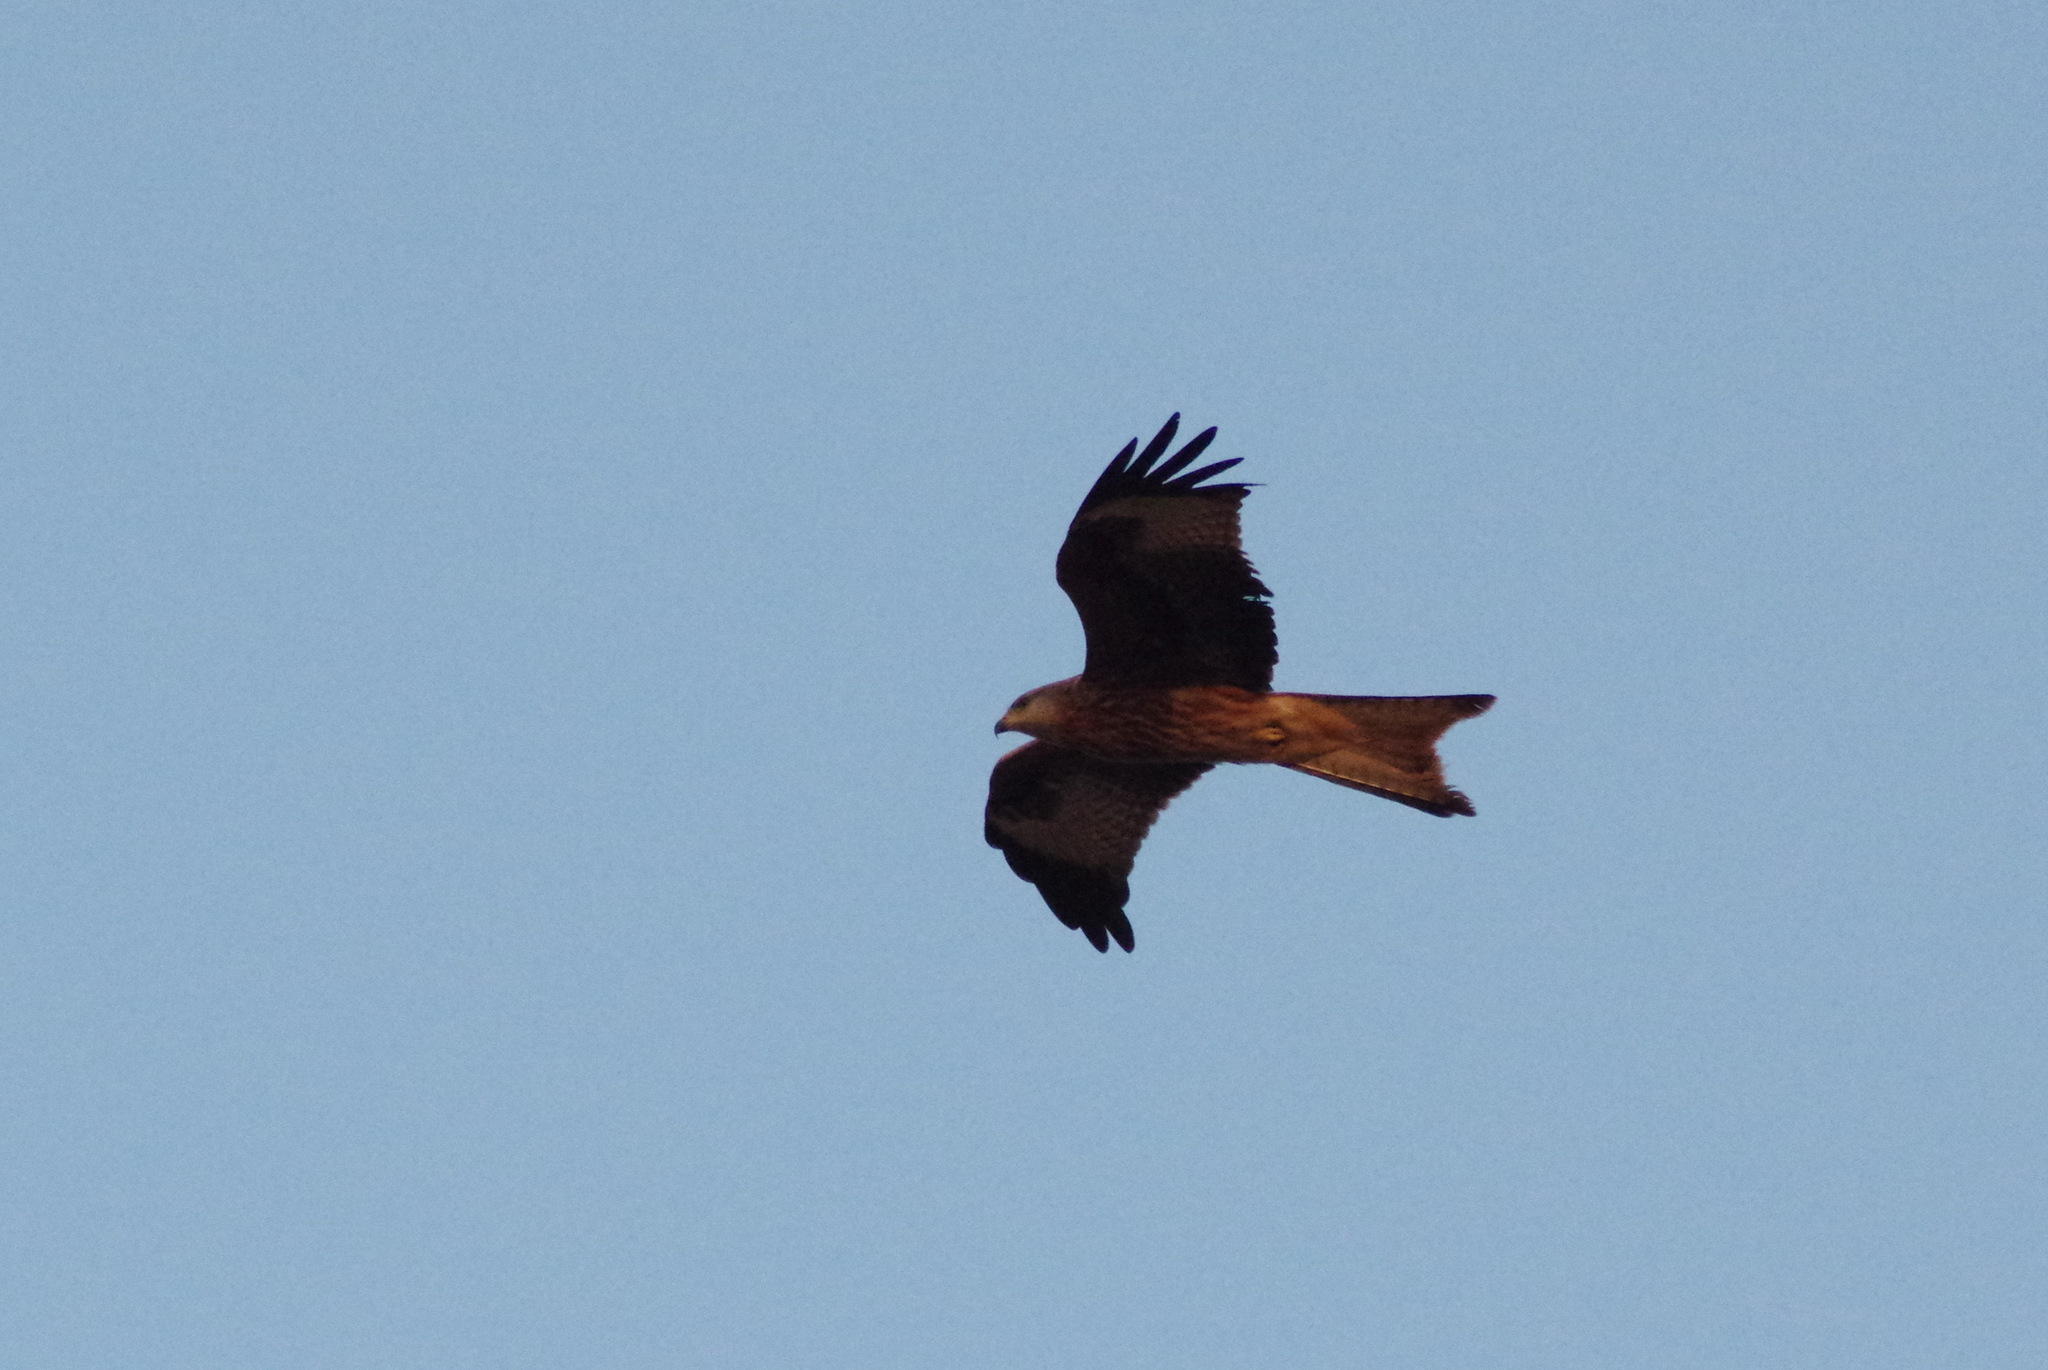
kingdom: Animalia
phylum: Chordata
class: Aves
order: Accipitriformes
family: Accipitridae
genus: Milvus
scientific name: Milvus milvus
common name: Red kite
